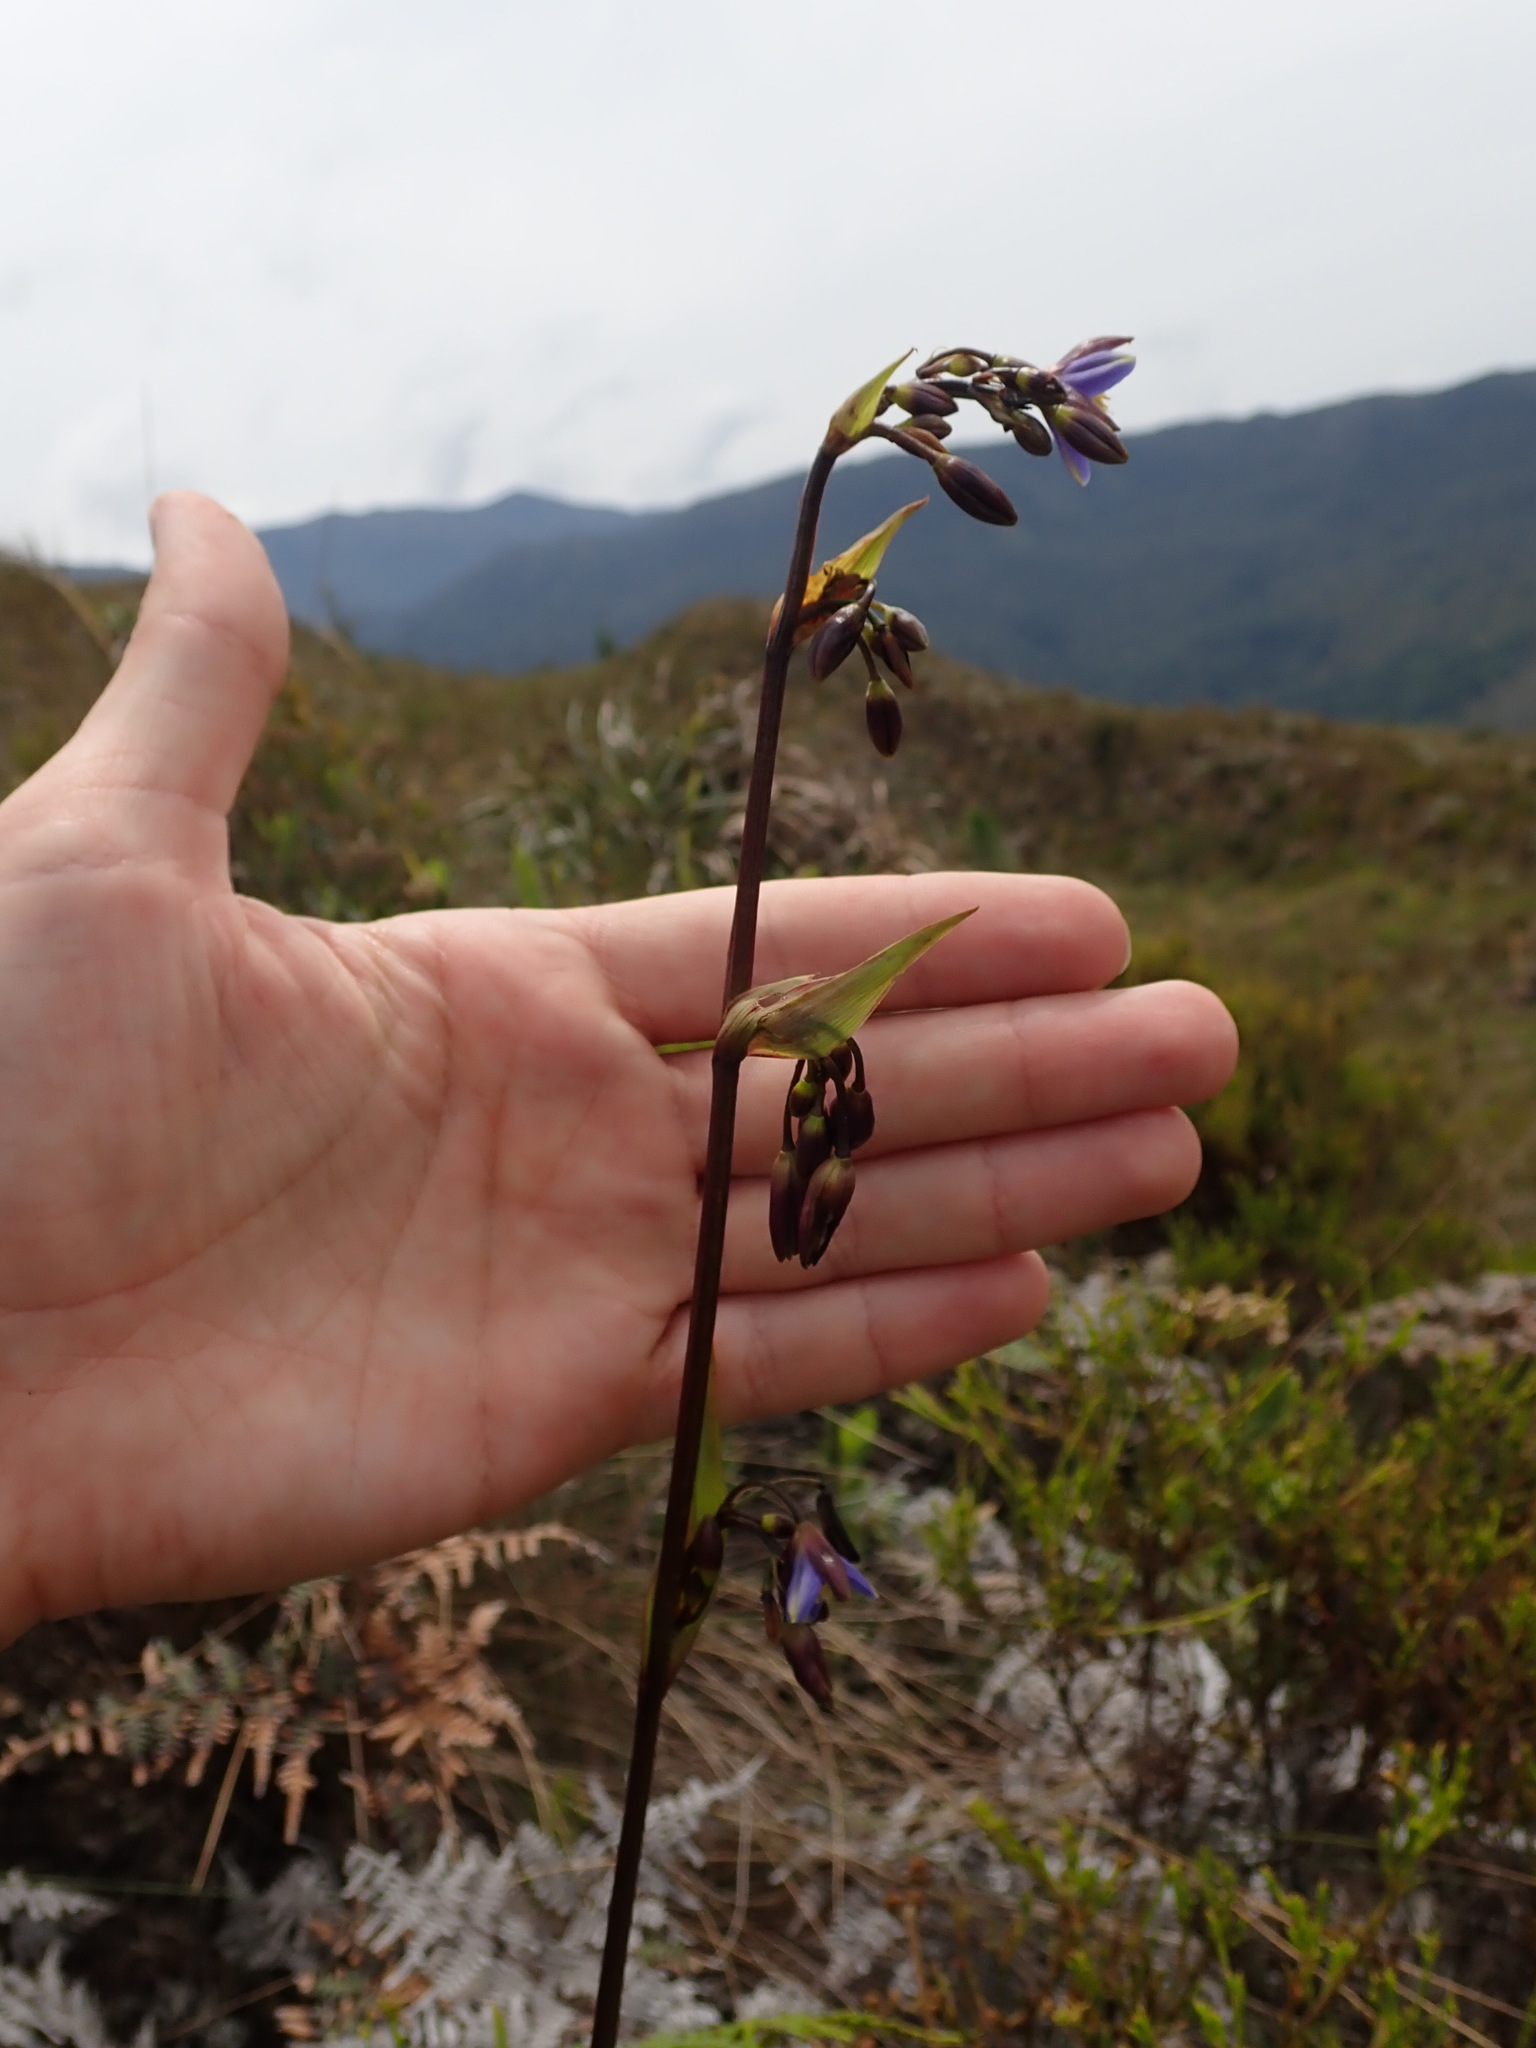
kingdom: Plantae
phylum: Tracheophyta
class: Liliopsida
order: Asparagales
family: Asphodelaceae
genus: Excremis
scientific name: Excremis coarctata
